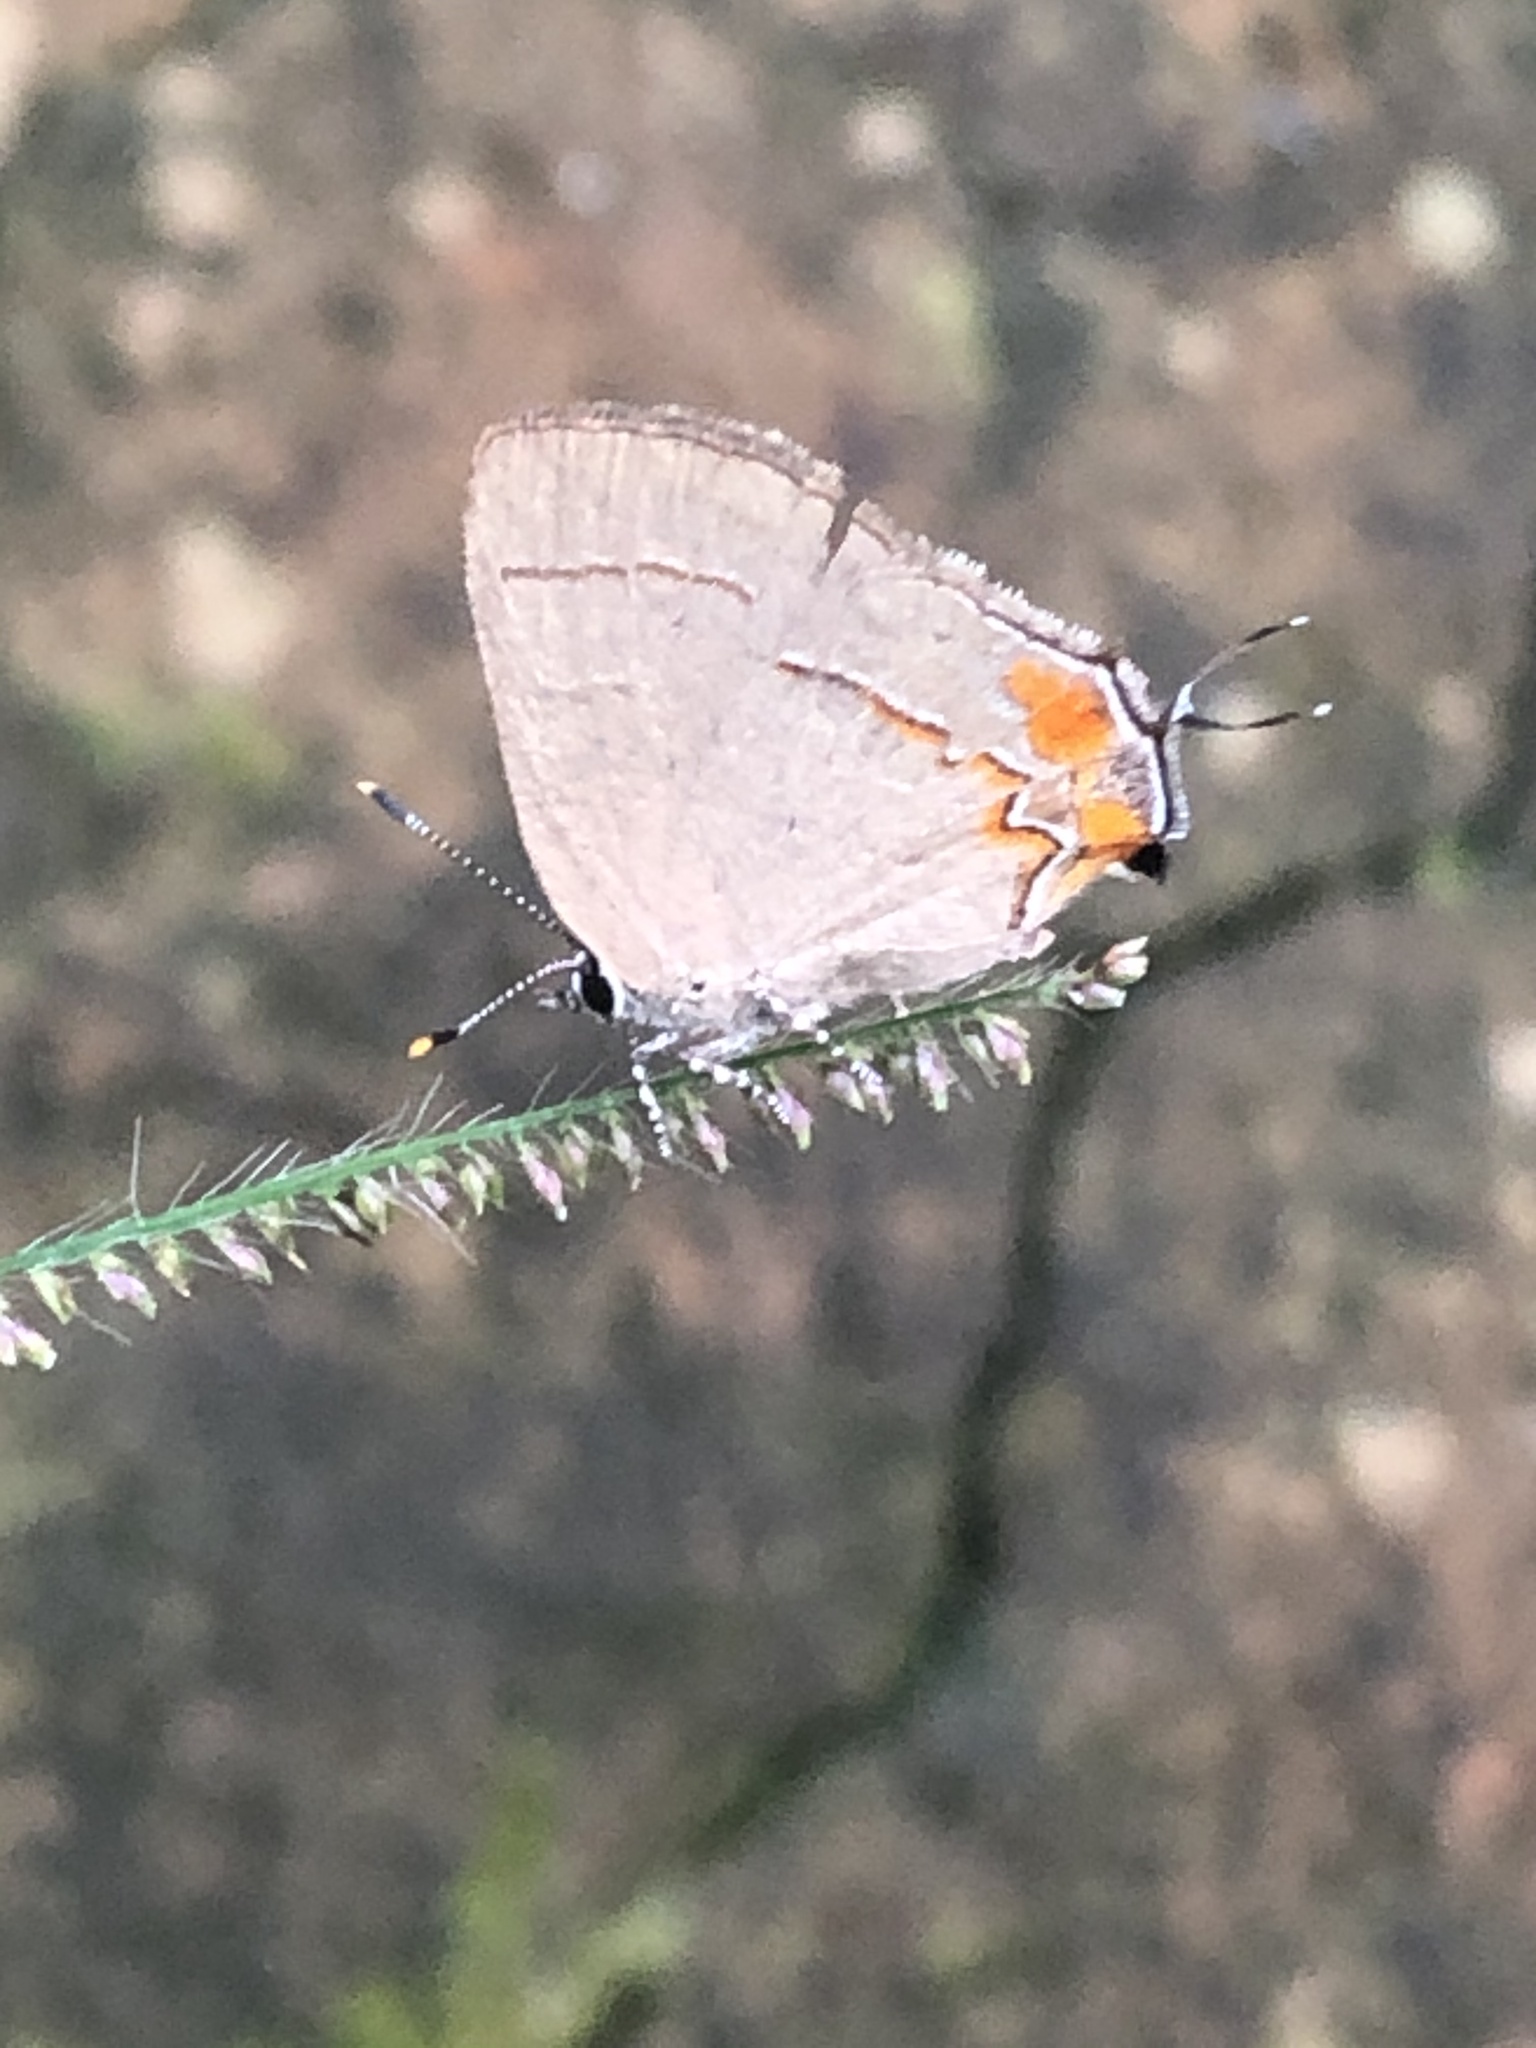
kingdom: Animalia
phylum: Arthropoda
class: Insecta
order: Lepidoptera
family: Lycaenidae
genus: Thecla
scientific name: Thecla aruma
